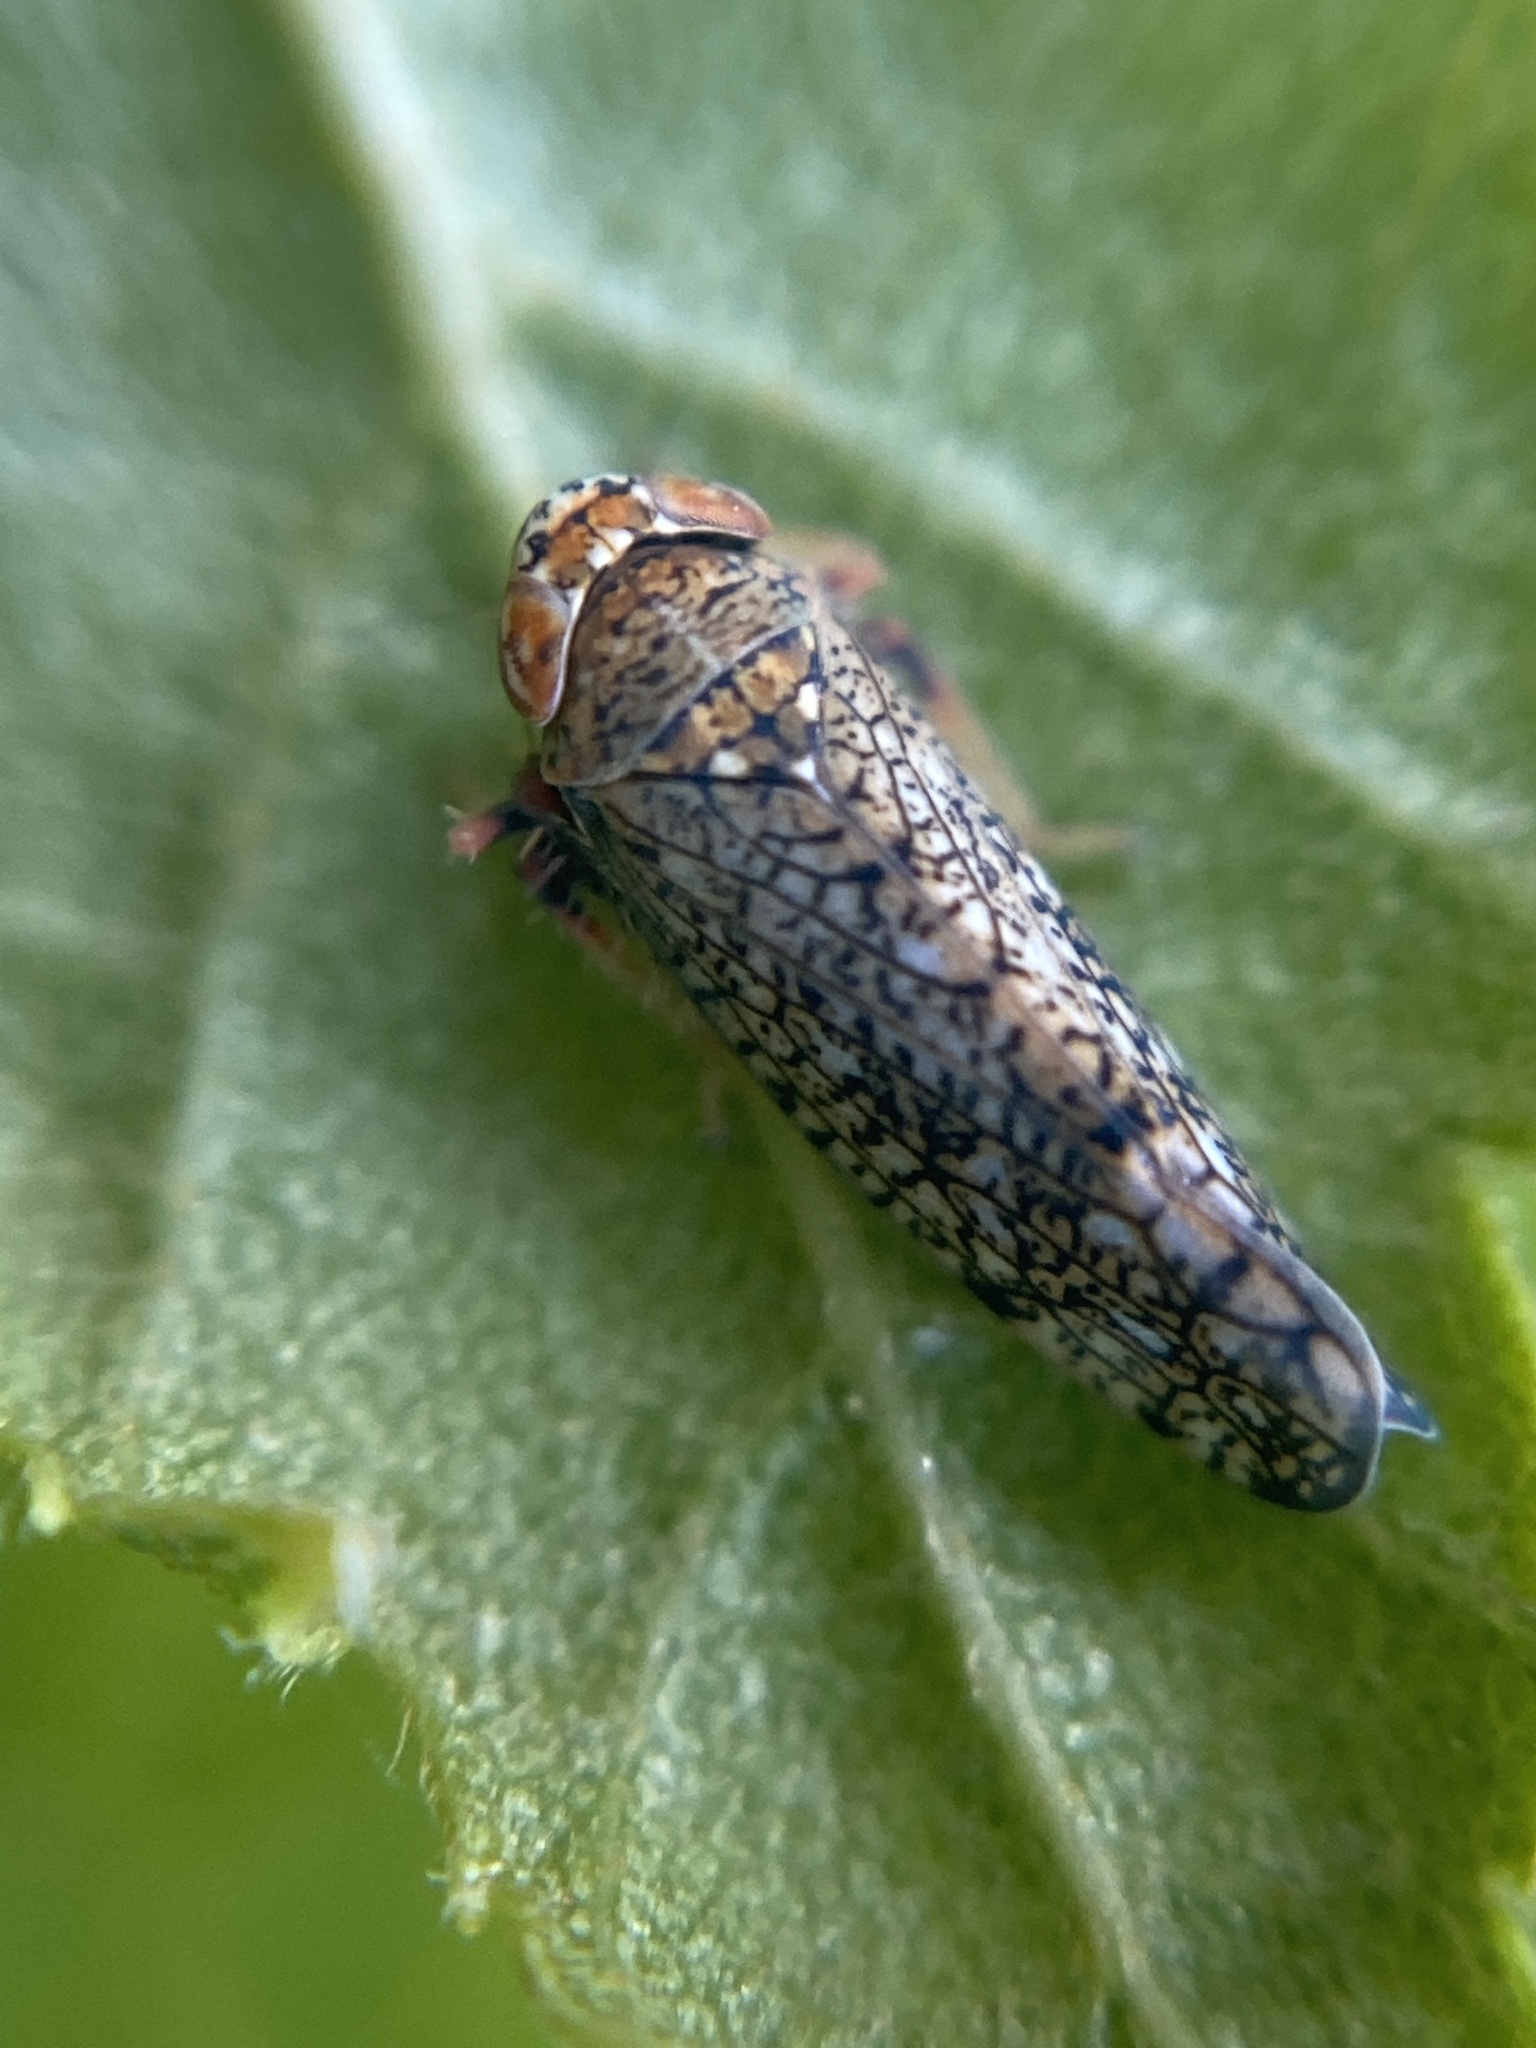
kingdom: Animalia
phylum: Arthropoda
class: Insecta
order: Hemiptera
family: Cicadellidae
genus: Orientus
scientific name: Orientus ishidae
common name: Japanese leafhopper
